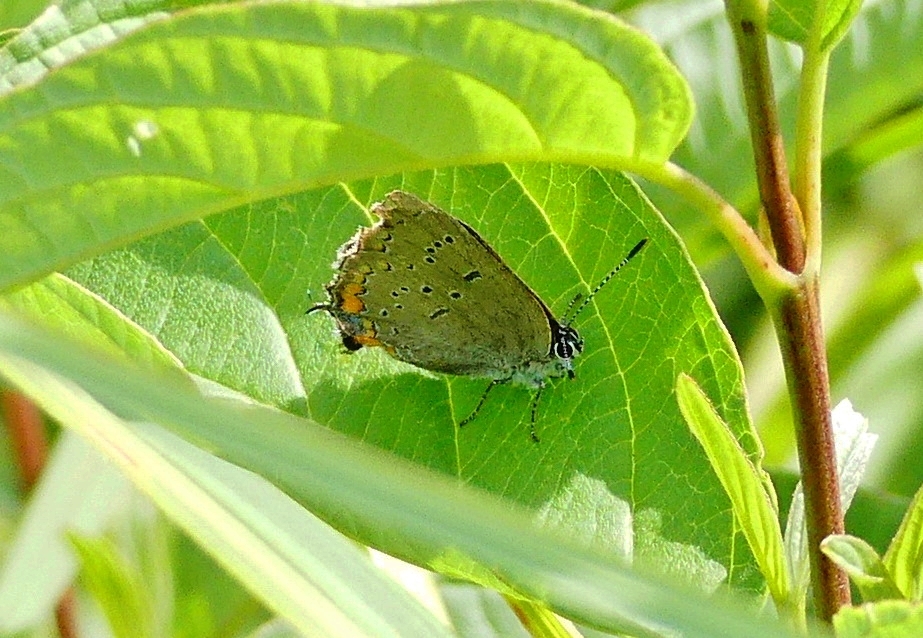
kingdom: Animalia
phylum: Arthropoda
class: Insecta
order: Lepidoptera
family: Lycaenidae
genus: Strymon
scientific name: Strymon acadica
